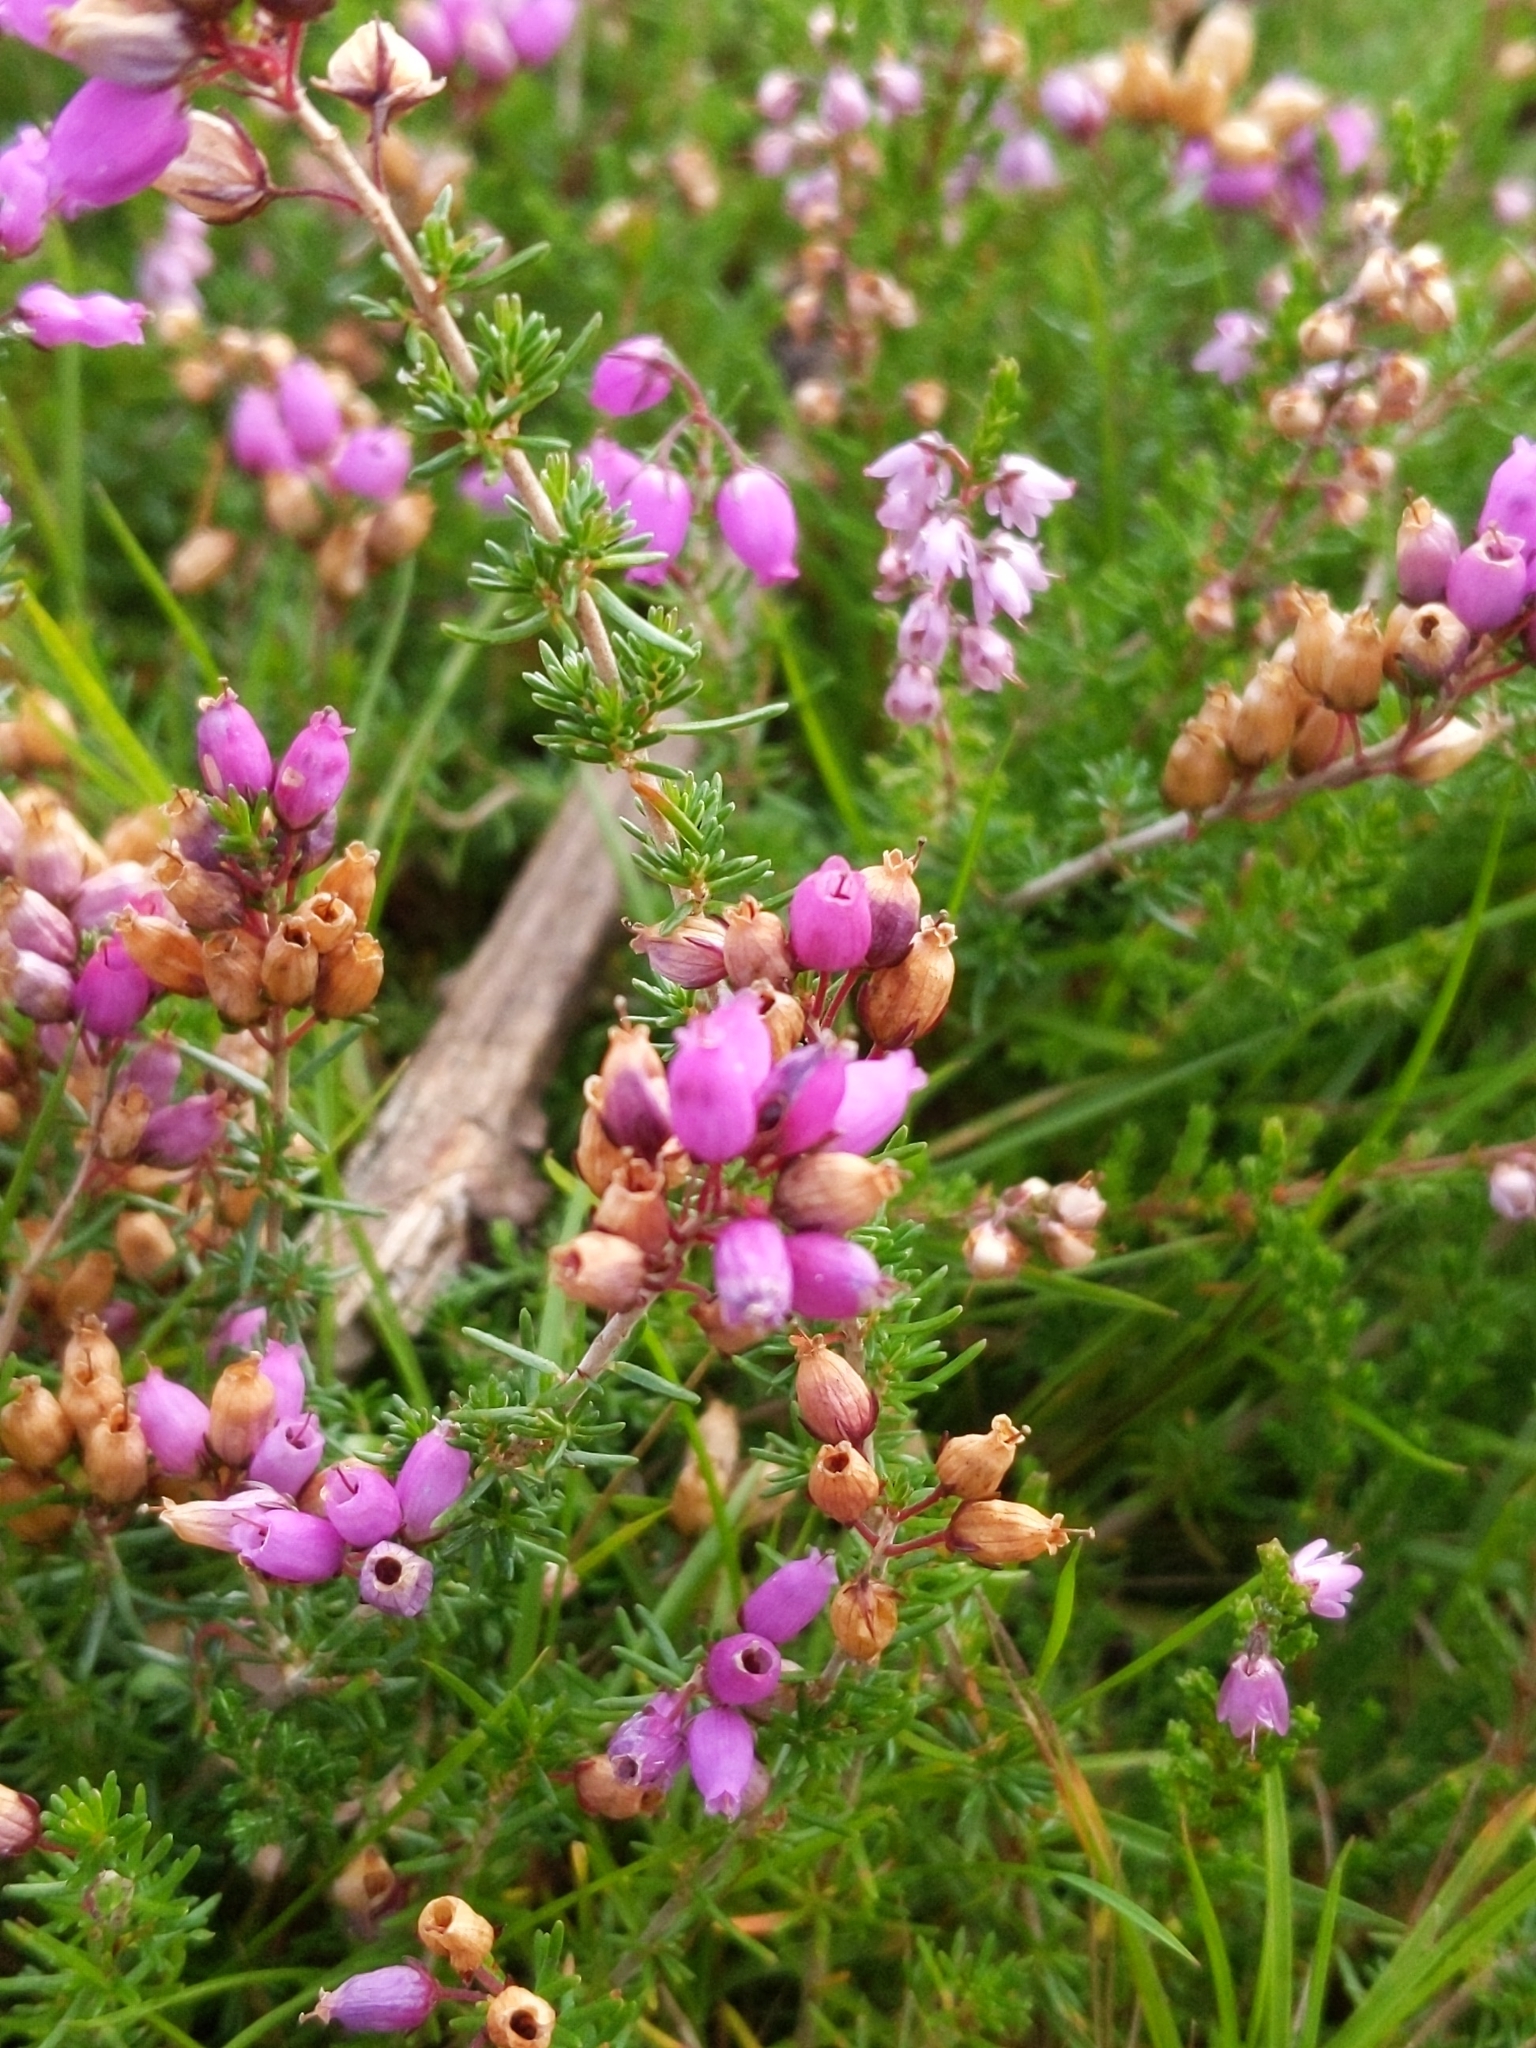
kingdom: Plantae
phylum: Tracheophyta
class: Magnoliopsida
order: Ericales
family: Ericaceae
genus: Erica
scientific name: Erica cinerea
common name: Bell heather
